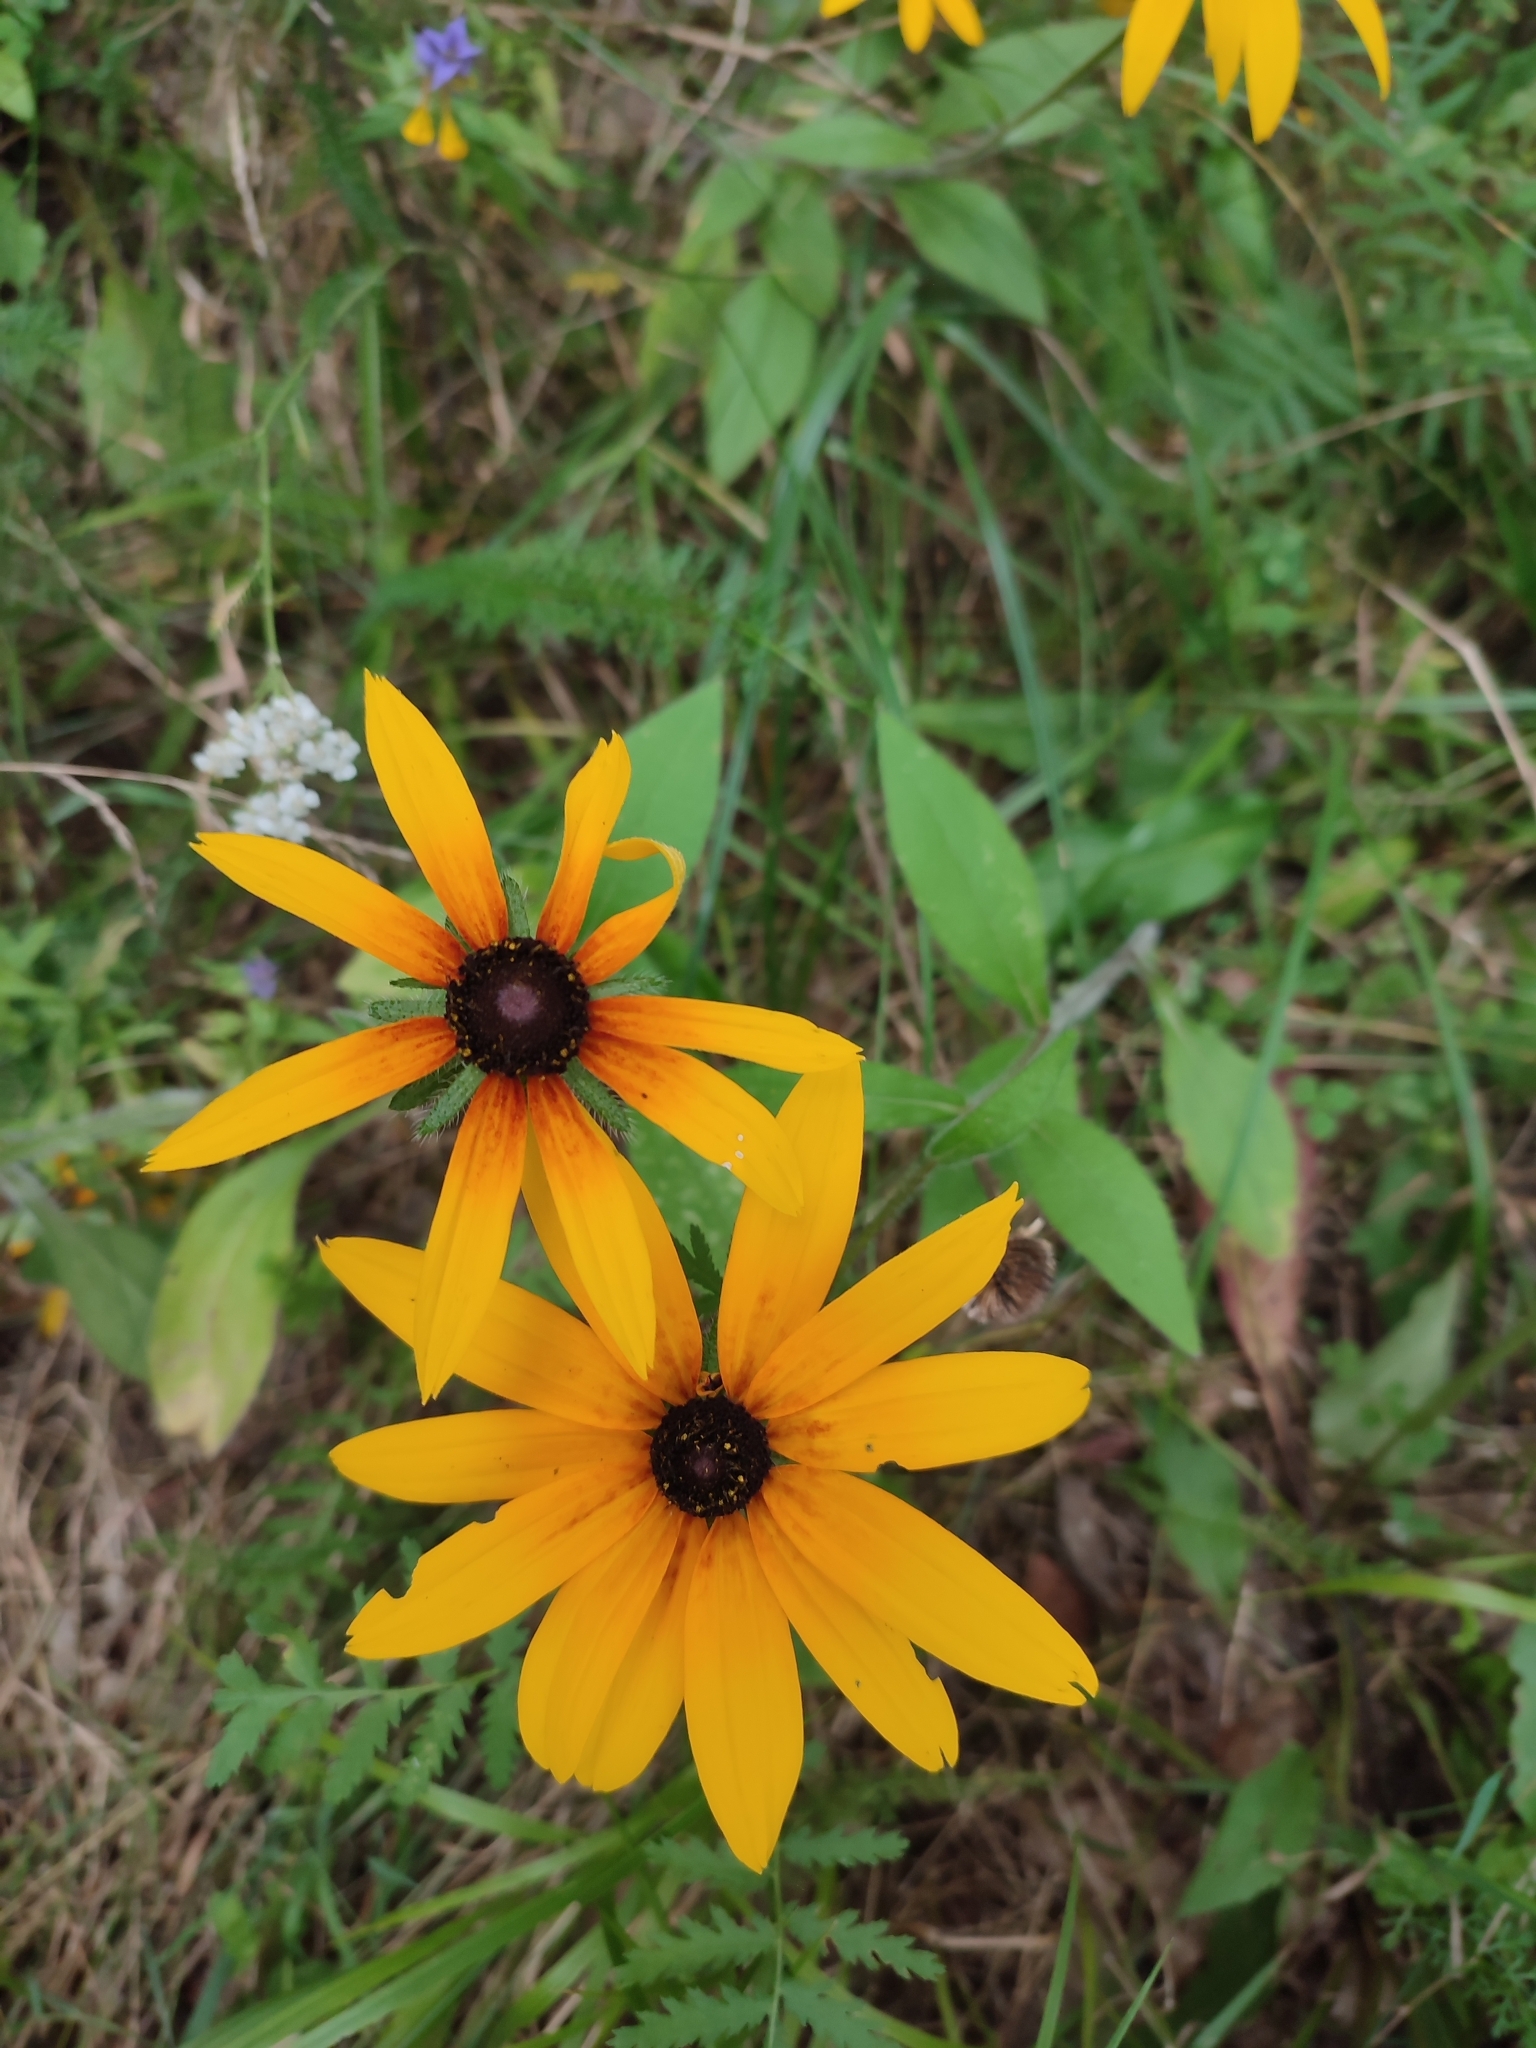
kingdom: Plantae
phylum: Tracheophyta
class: Magnoliopsida
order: Asterales
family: Asteraceae
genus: Rudbeckia
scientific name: Rudbeckia hirta
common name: Black-eyed-susan
